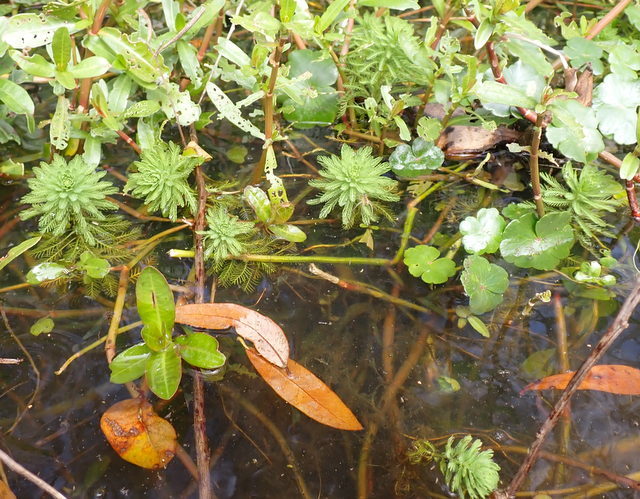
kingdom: Plantae
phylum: Tracheophyta
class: Magnoliopsida
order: Saxifragales
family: Haloragaceae
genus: Myriophyllum
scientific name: Myriophyllum aquaticum
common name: Parrot's feather
